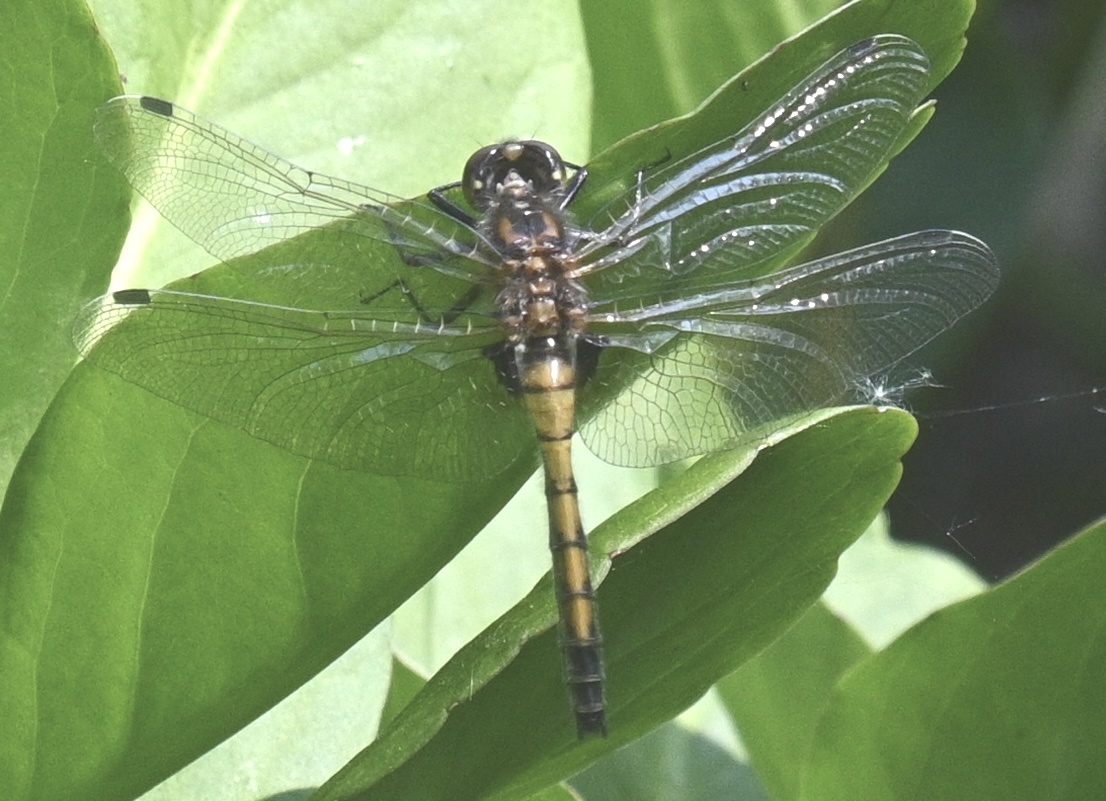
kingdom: Animalia
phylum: Arthropoda
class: Insecta
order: Odonata
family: Libellulidae
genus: Leucorrhinia
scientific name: Leucorrhinia pectoralis
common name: Yellow-spotted whiteface
